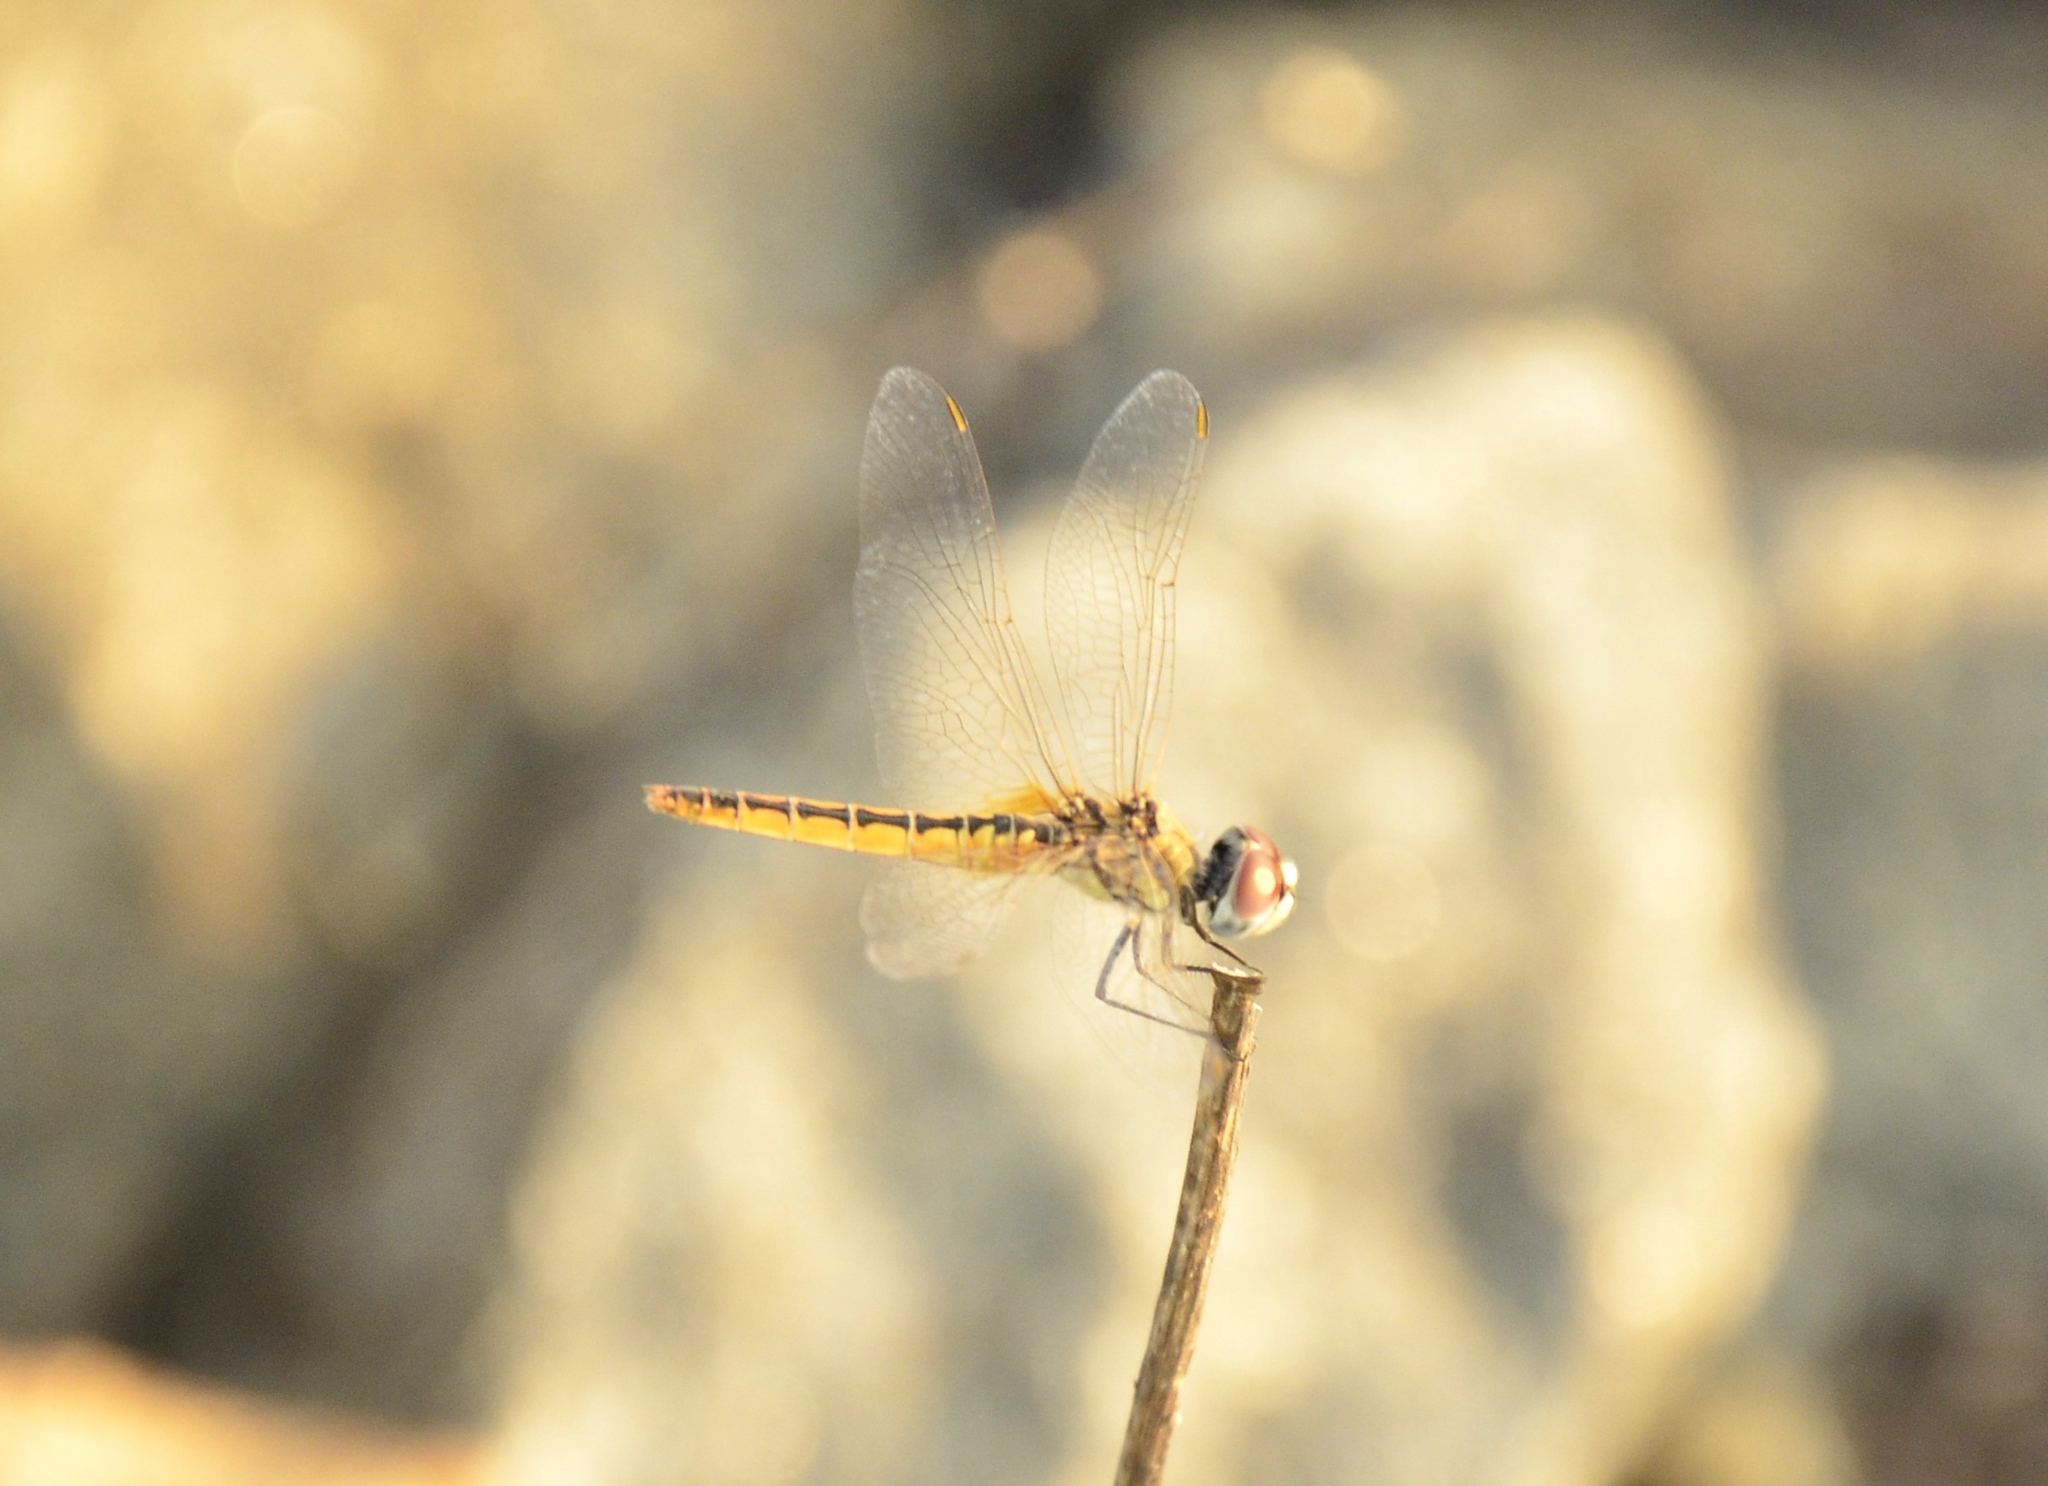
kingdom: Animalia
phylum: Arthropoda
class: Insecta
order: Odonata
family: Libellulidae
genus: Macrodiplax
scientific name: Macrodiplax cora
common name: Coastal glider
